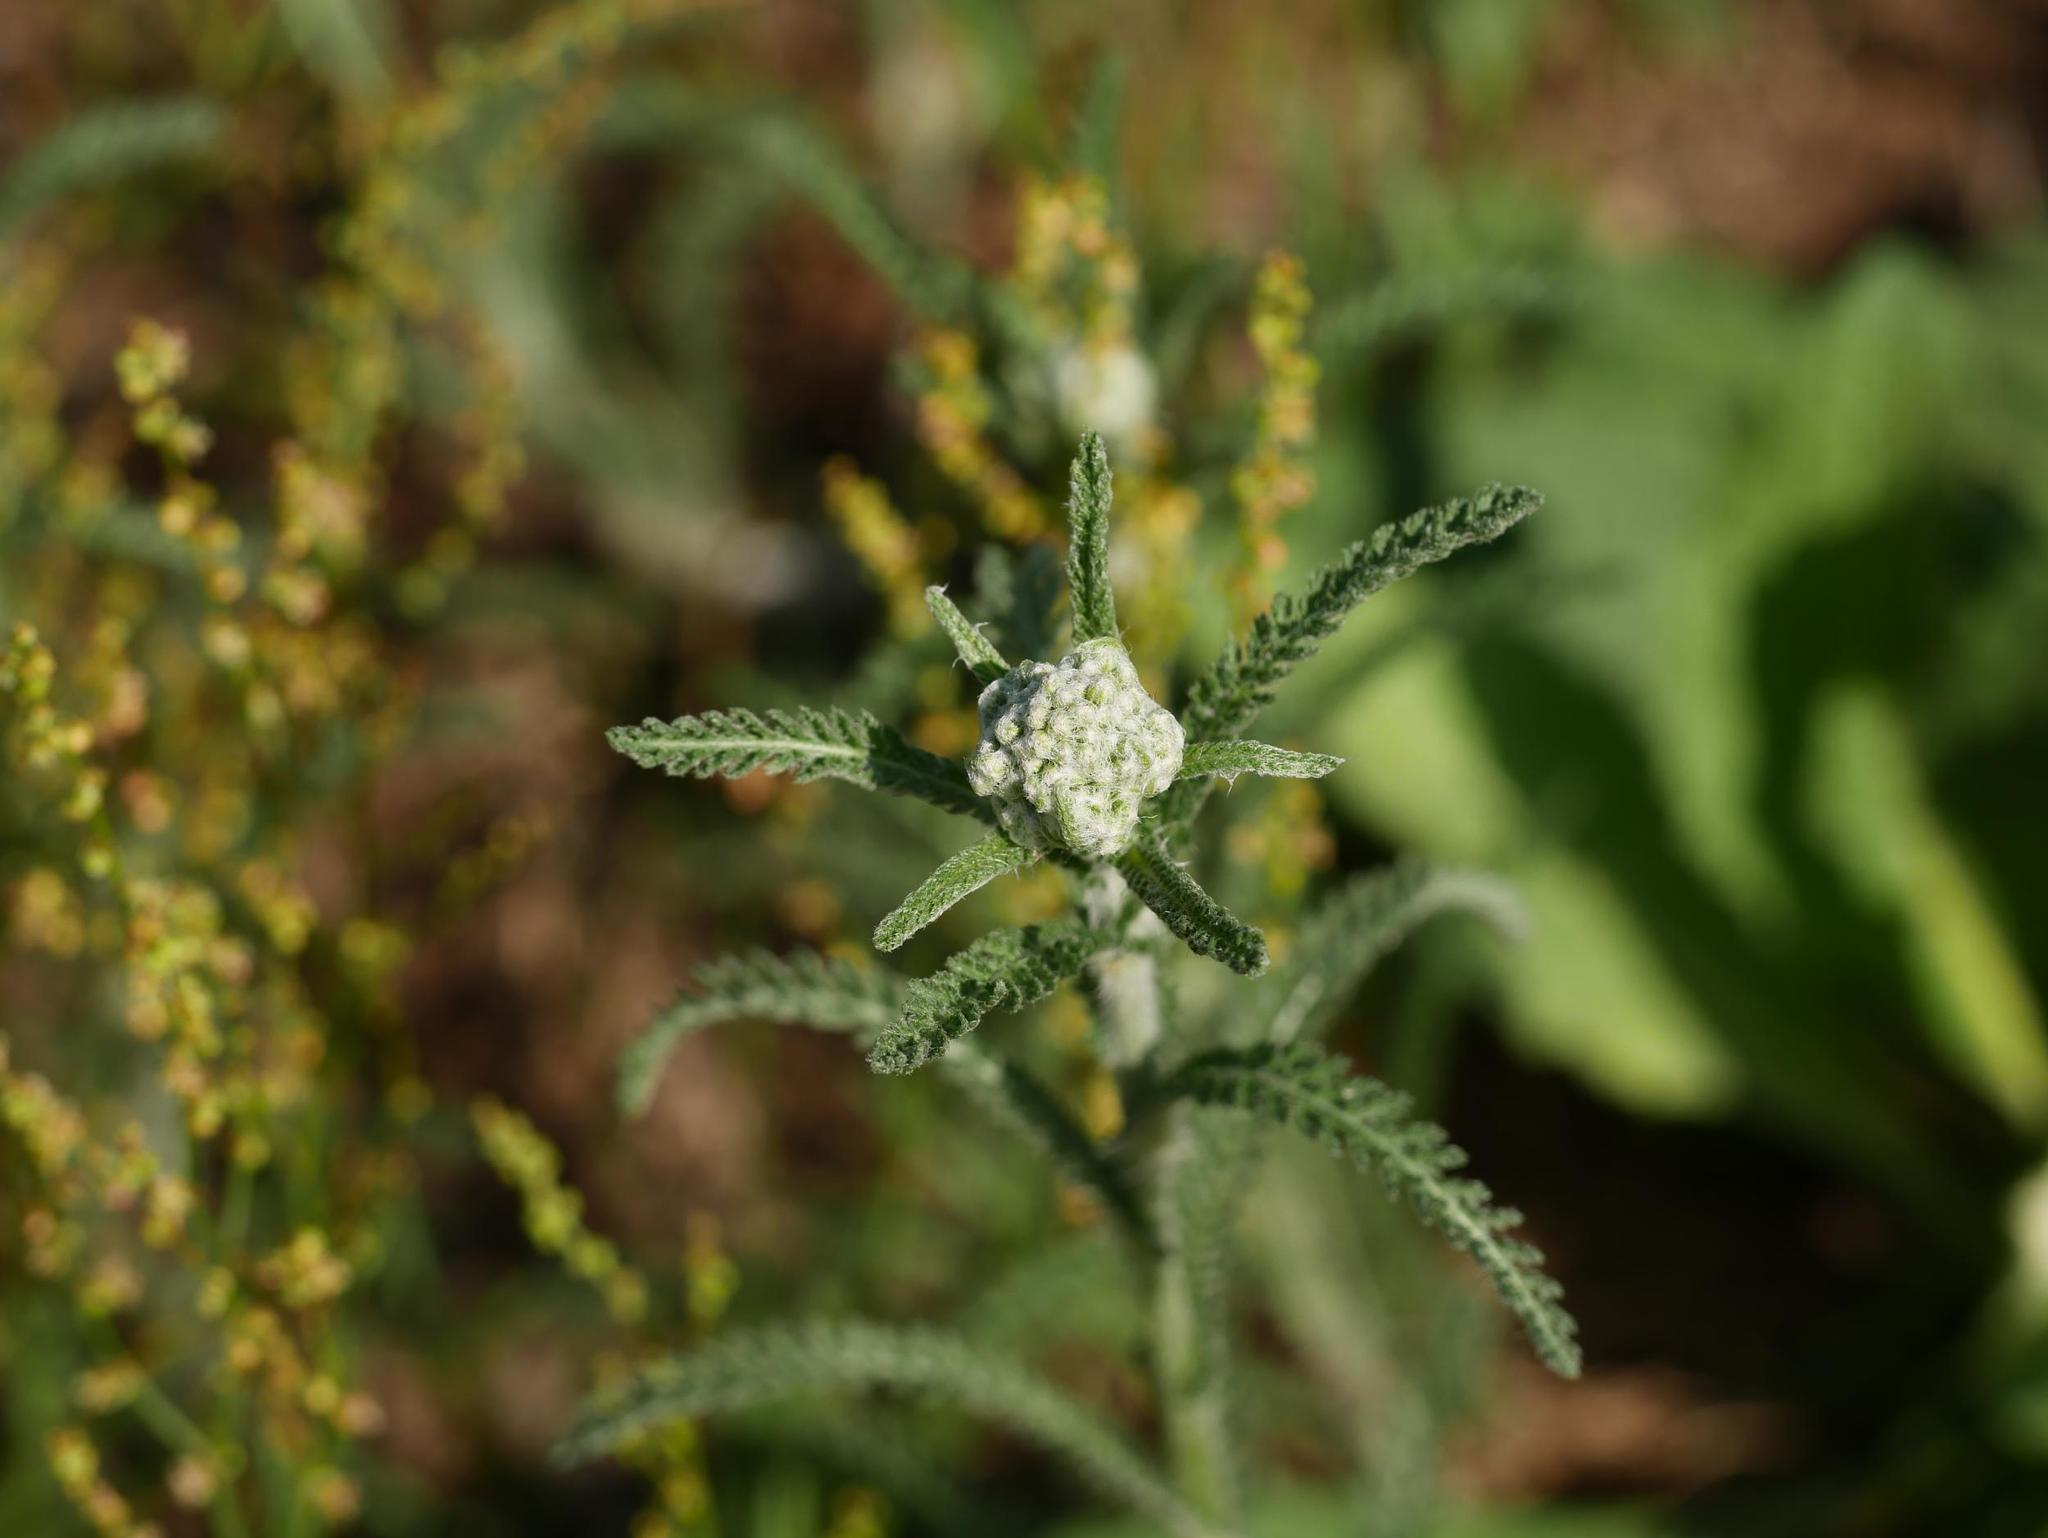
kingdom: Plantae
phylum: Tracheophyta
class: Magnoliopsida
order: Asterales
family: Asteraceae
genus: Achillea
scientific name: Achillea millefolium
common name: Yarrow
